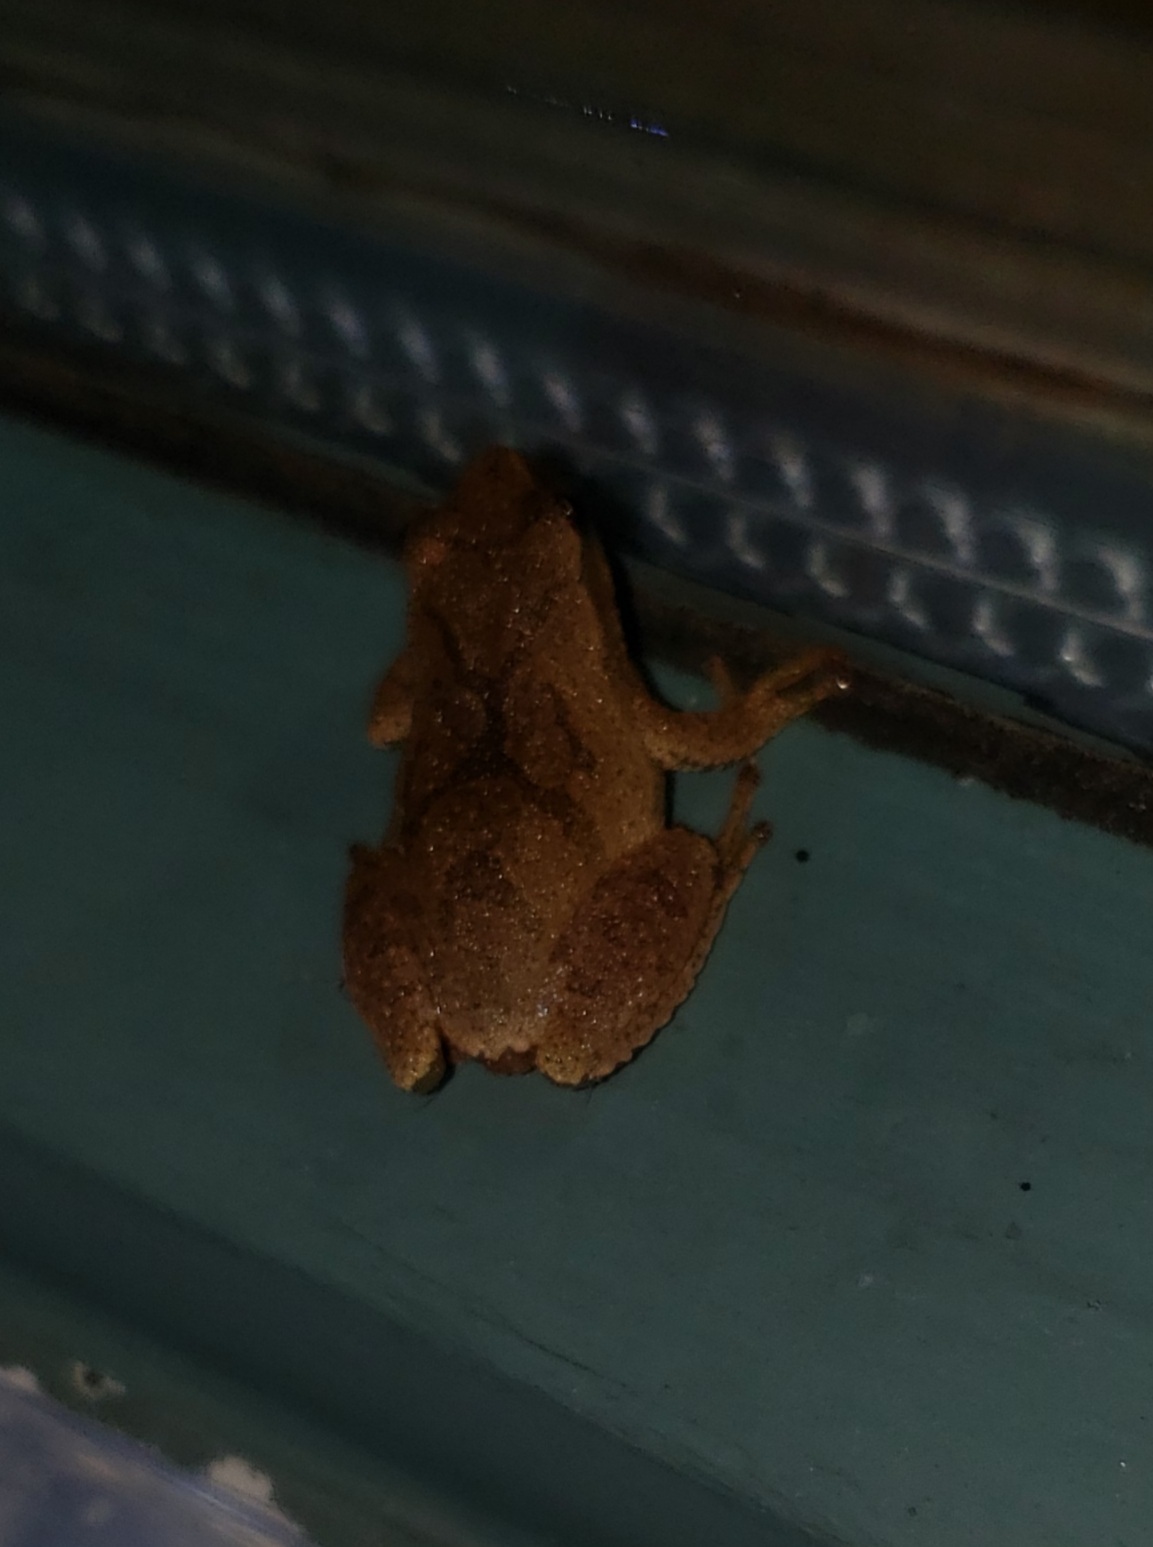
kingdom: Animalia
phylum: Chordata
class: Amphibia
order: Anura
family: Hylidae
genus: Pseudacris
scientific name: Pseudacris crucifer
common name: Spring peeper
